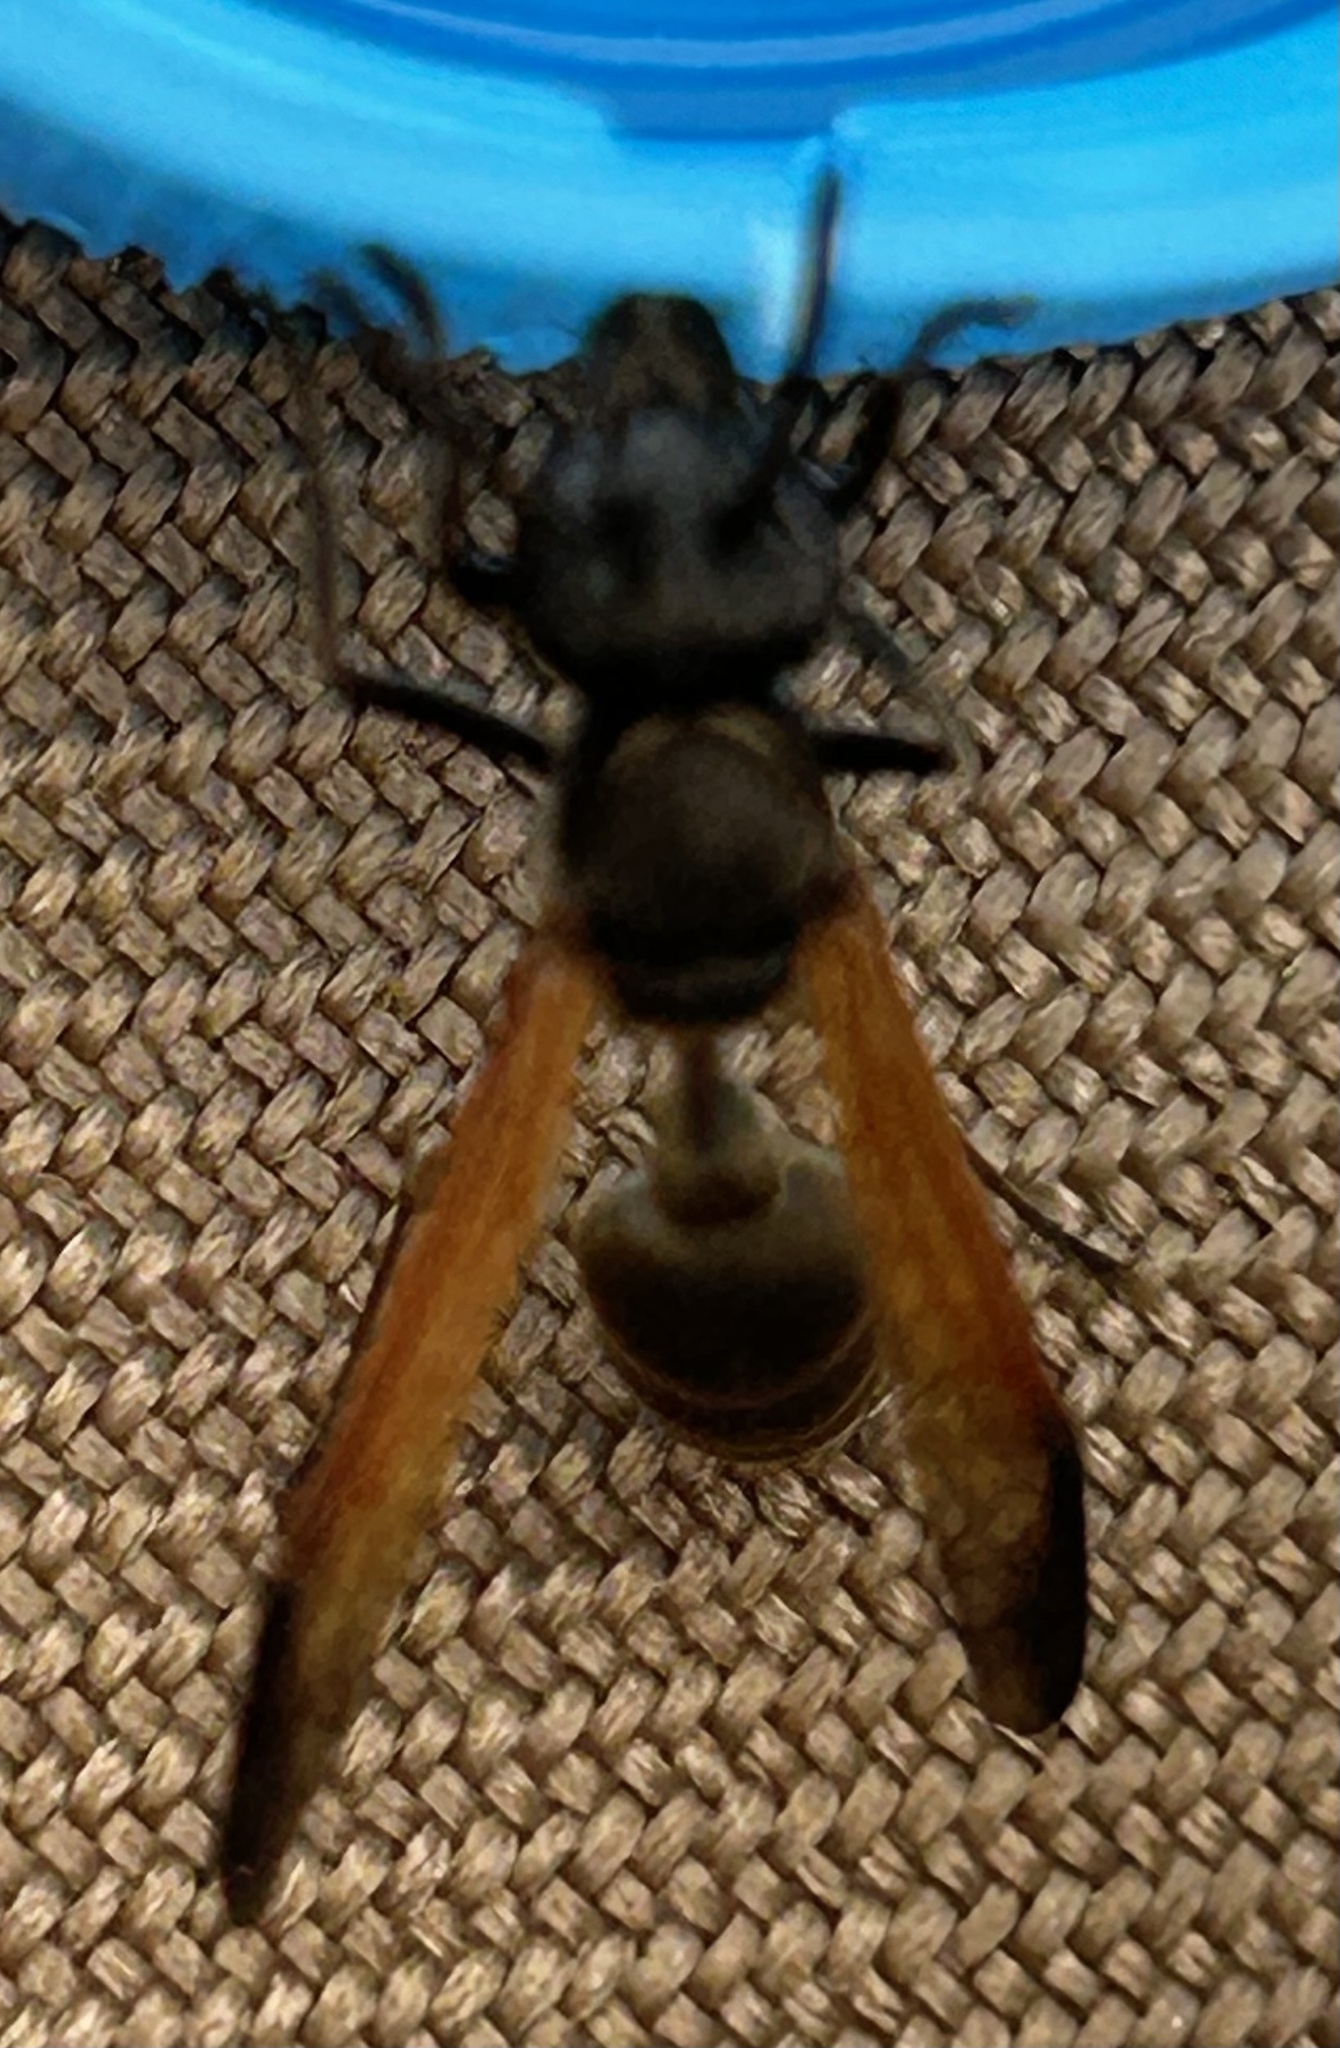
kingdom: Animalia
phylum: Arthropoda
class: Insecta
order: Hymenoptera
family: Eumenidae
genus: Polybia
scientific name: Polybia rejecta
